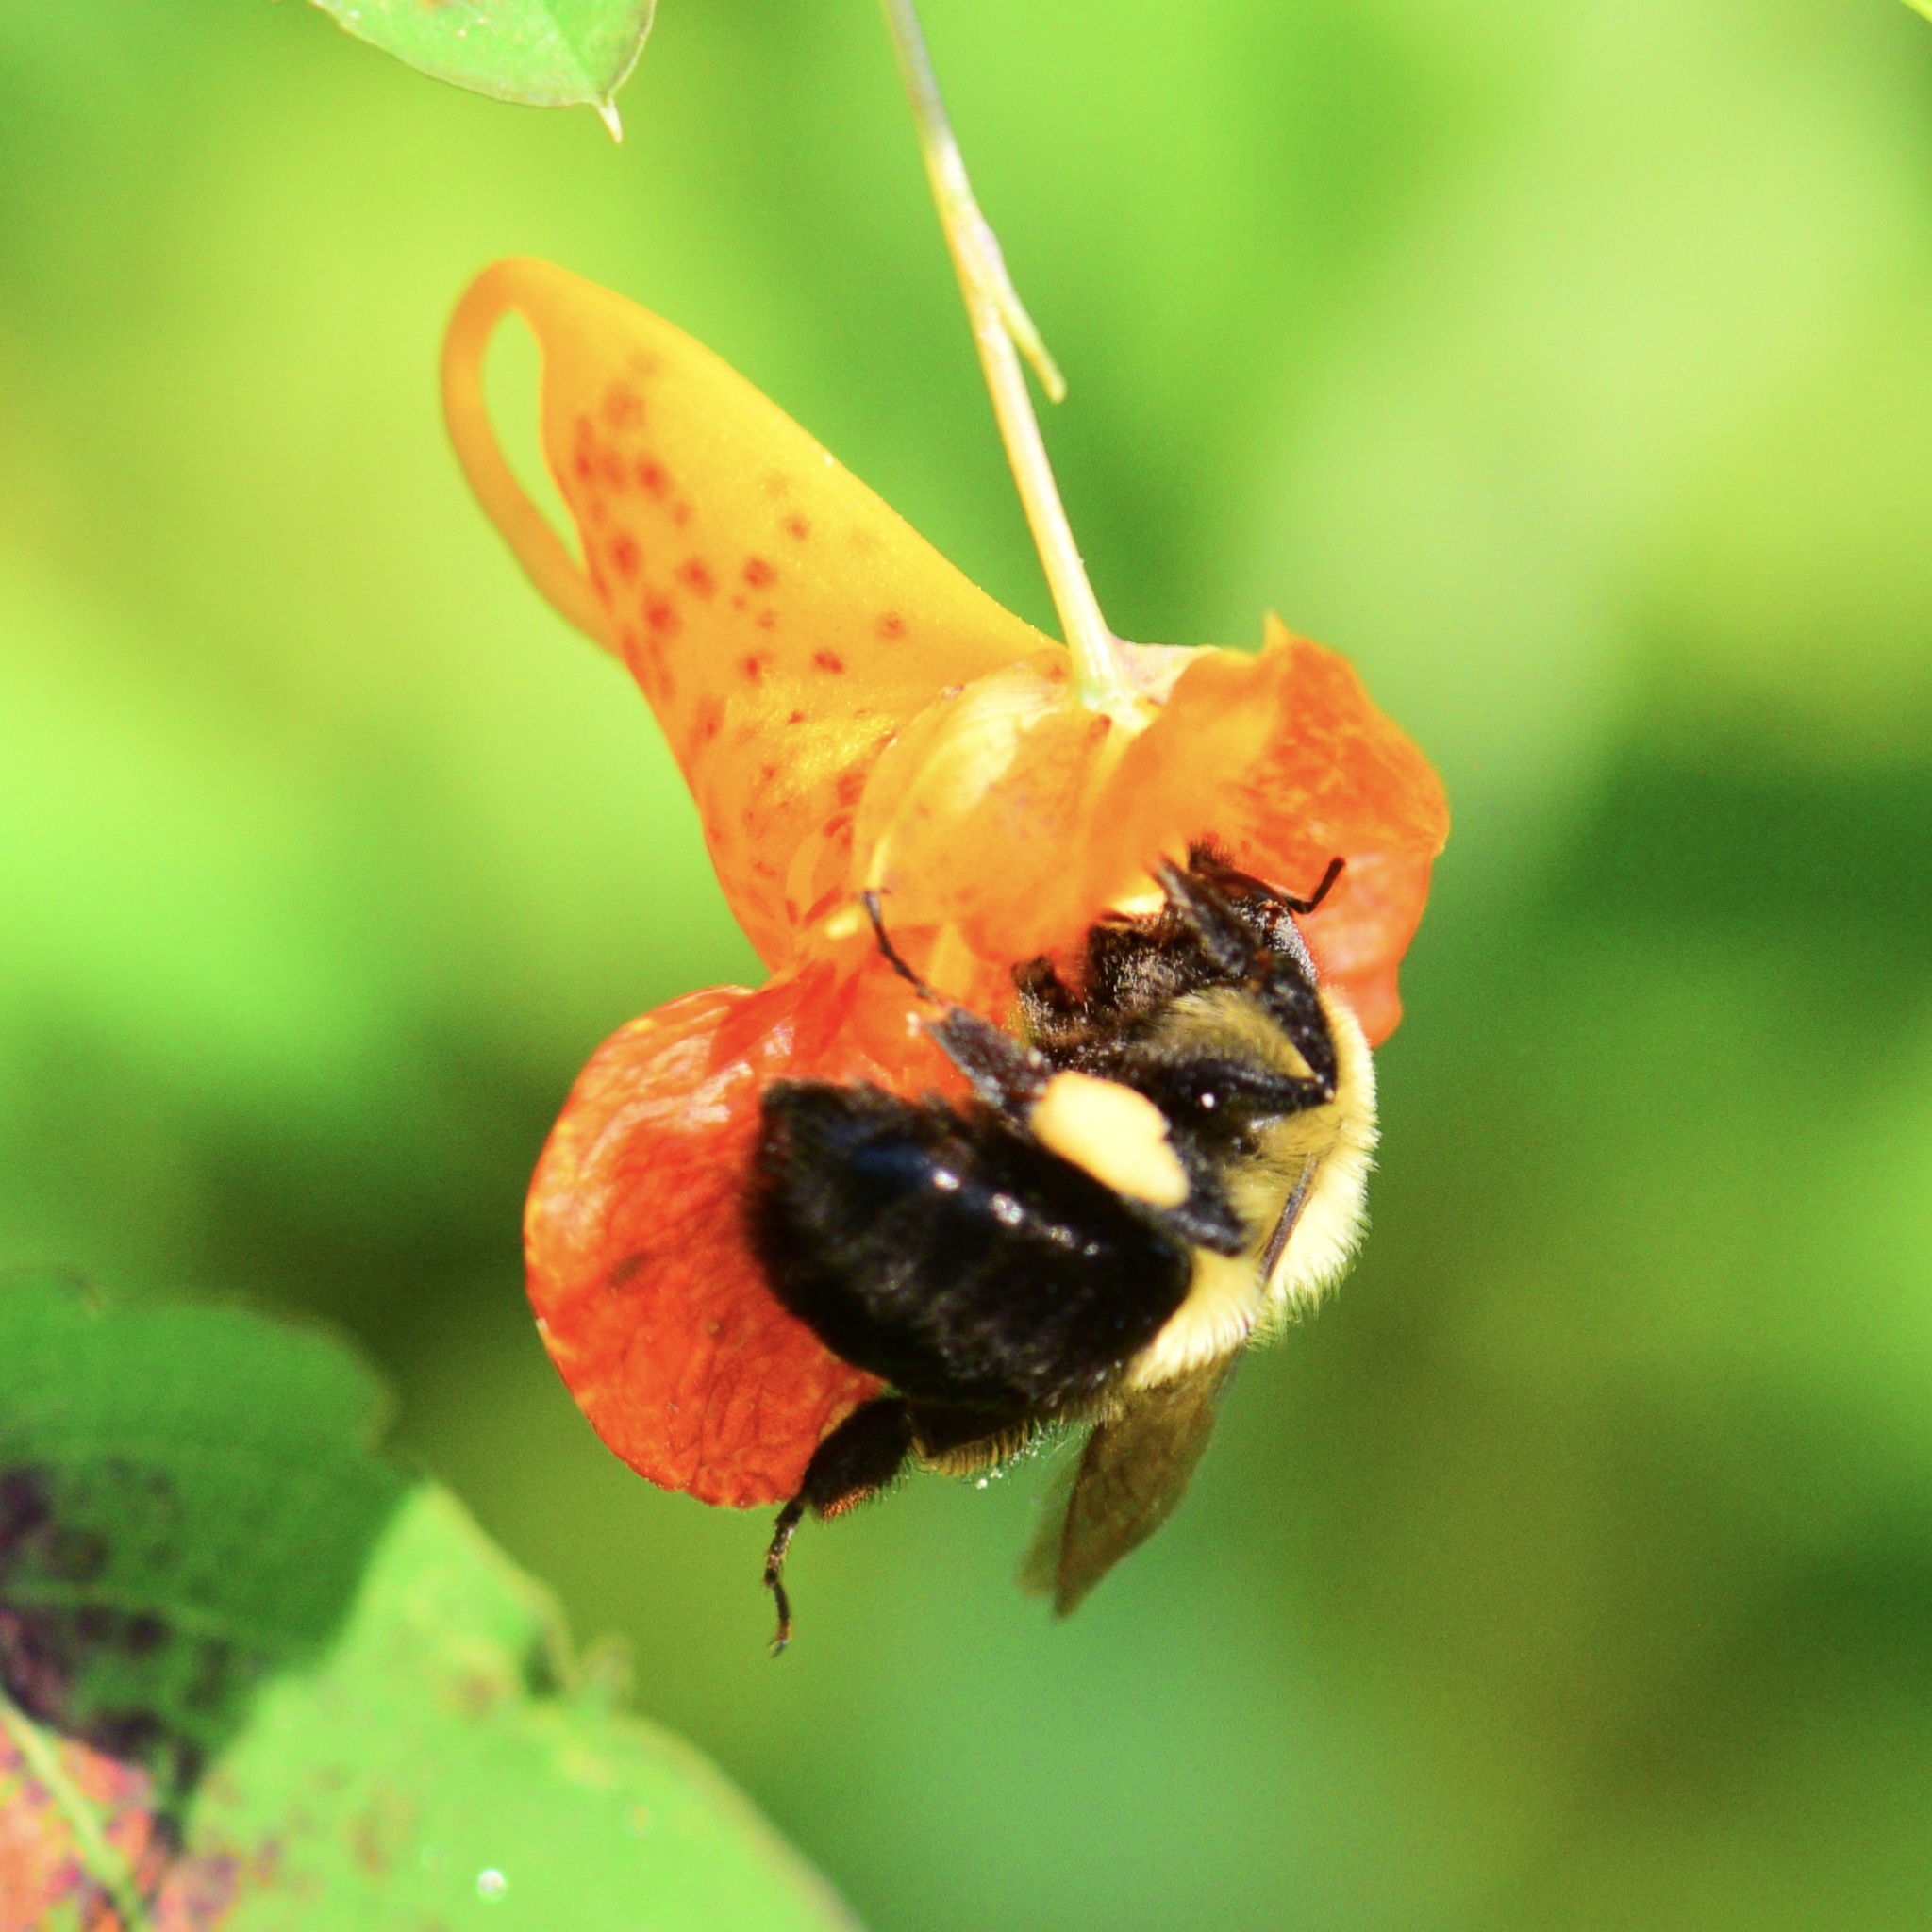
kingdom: Animalia
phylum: Arthropoda
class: Insecta
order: Hymenoptera
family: Apidae
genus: Bombus
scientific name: Bombus impatiens
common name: Common eastern bumble bee
